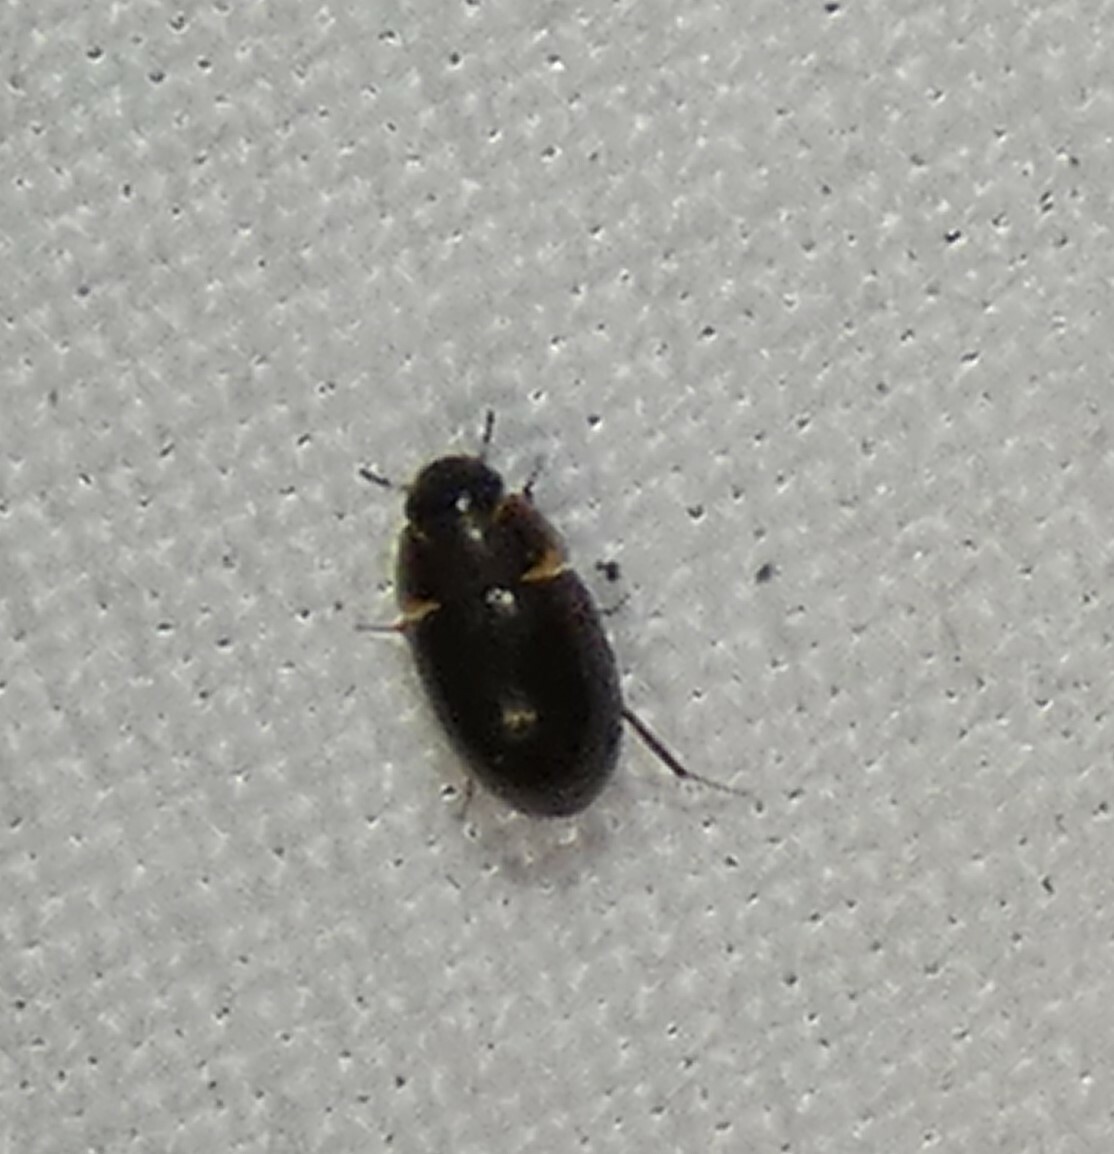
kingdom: Animalia
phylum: Arthropoda
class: Insecta
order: Coleoptera
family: Hydrophilidae
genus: Enochrus
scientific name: Enochrus
